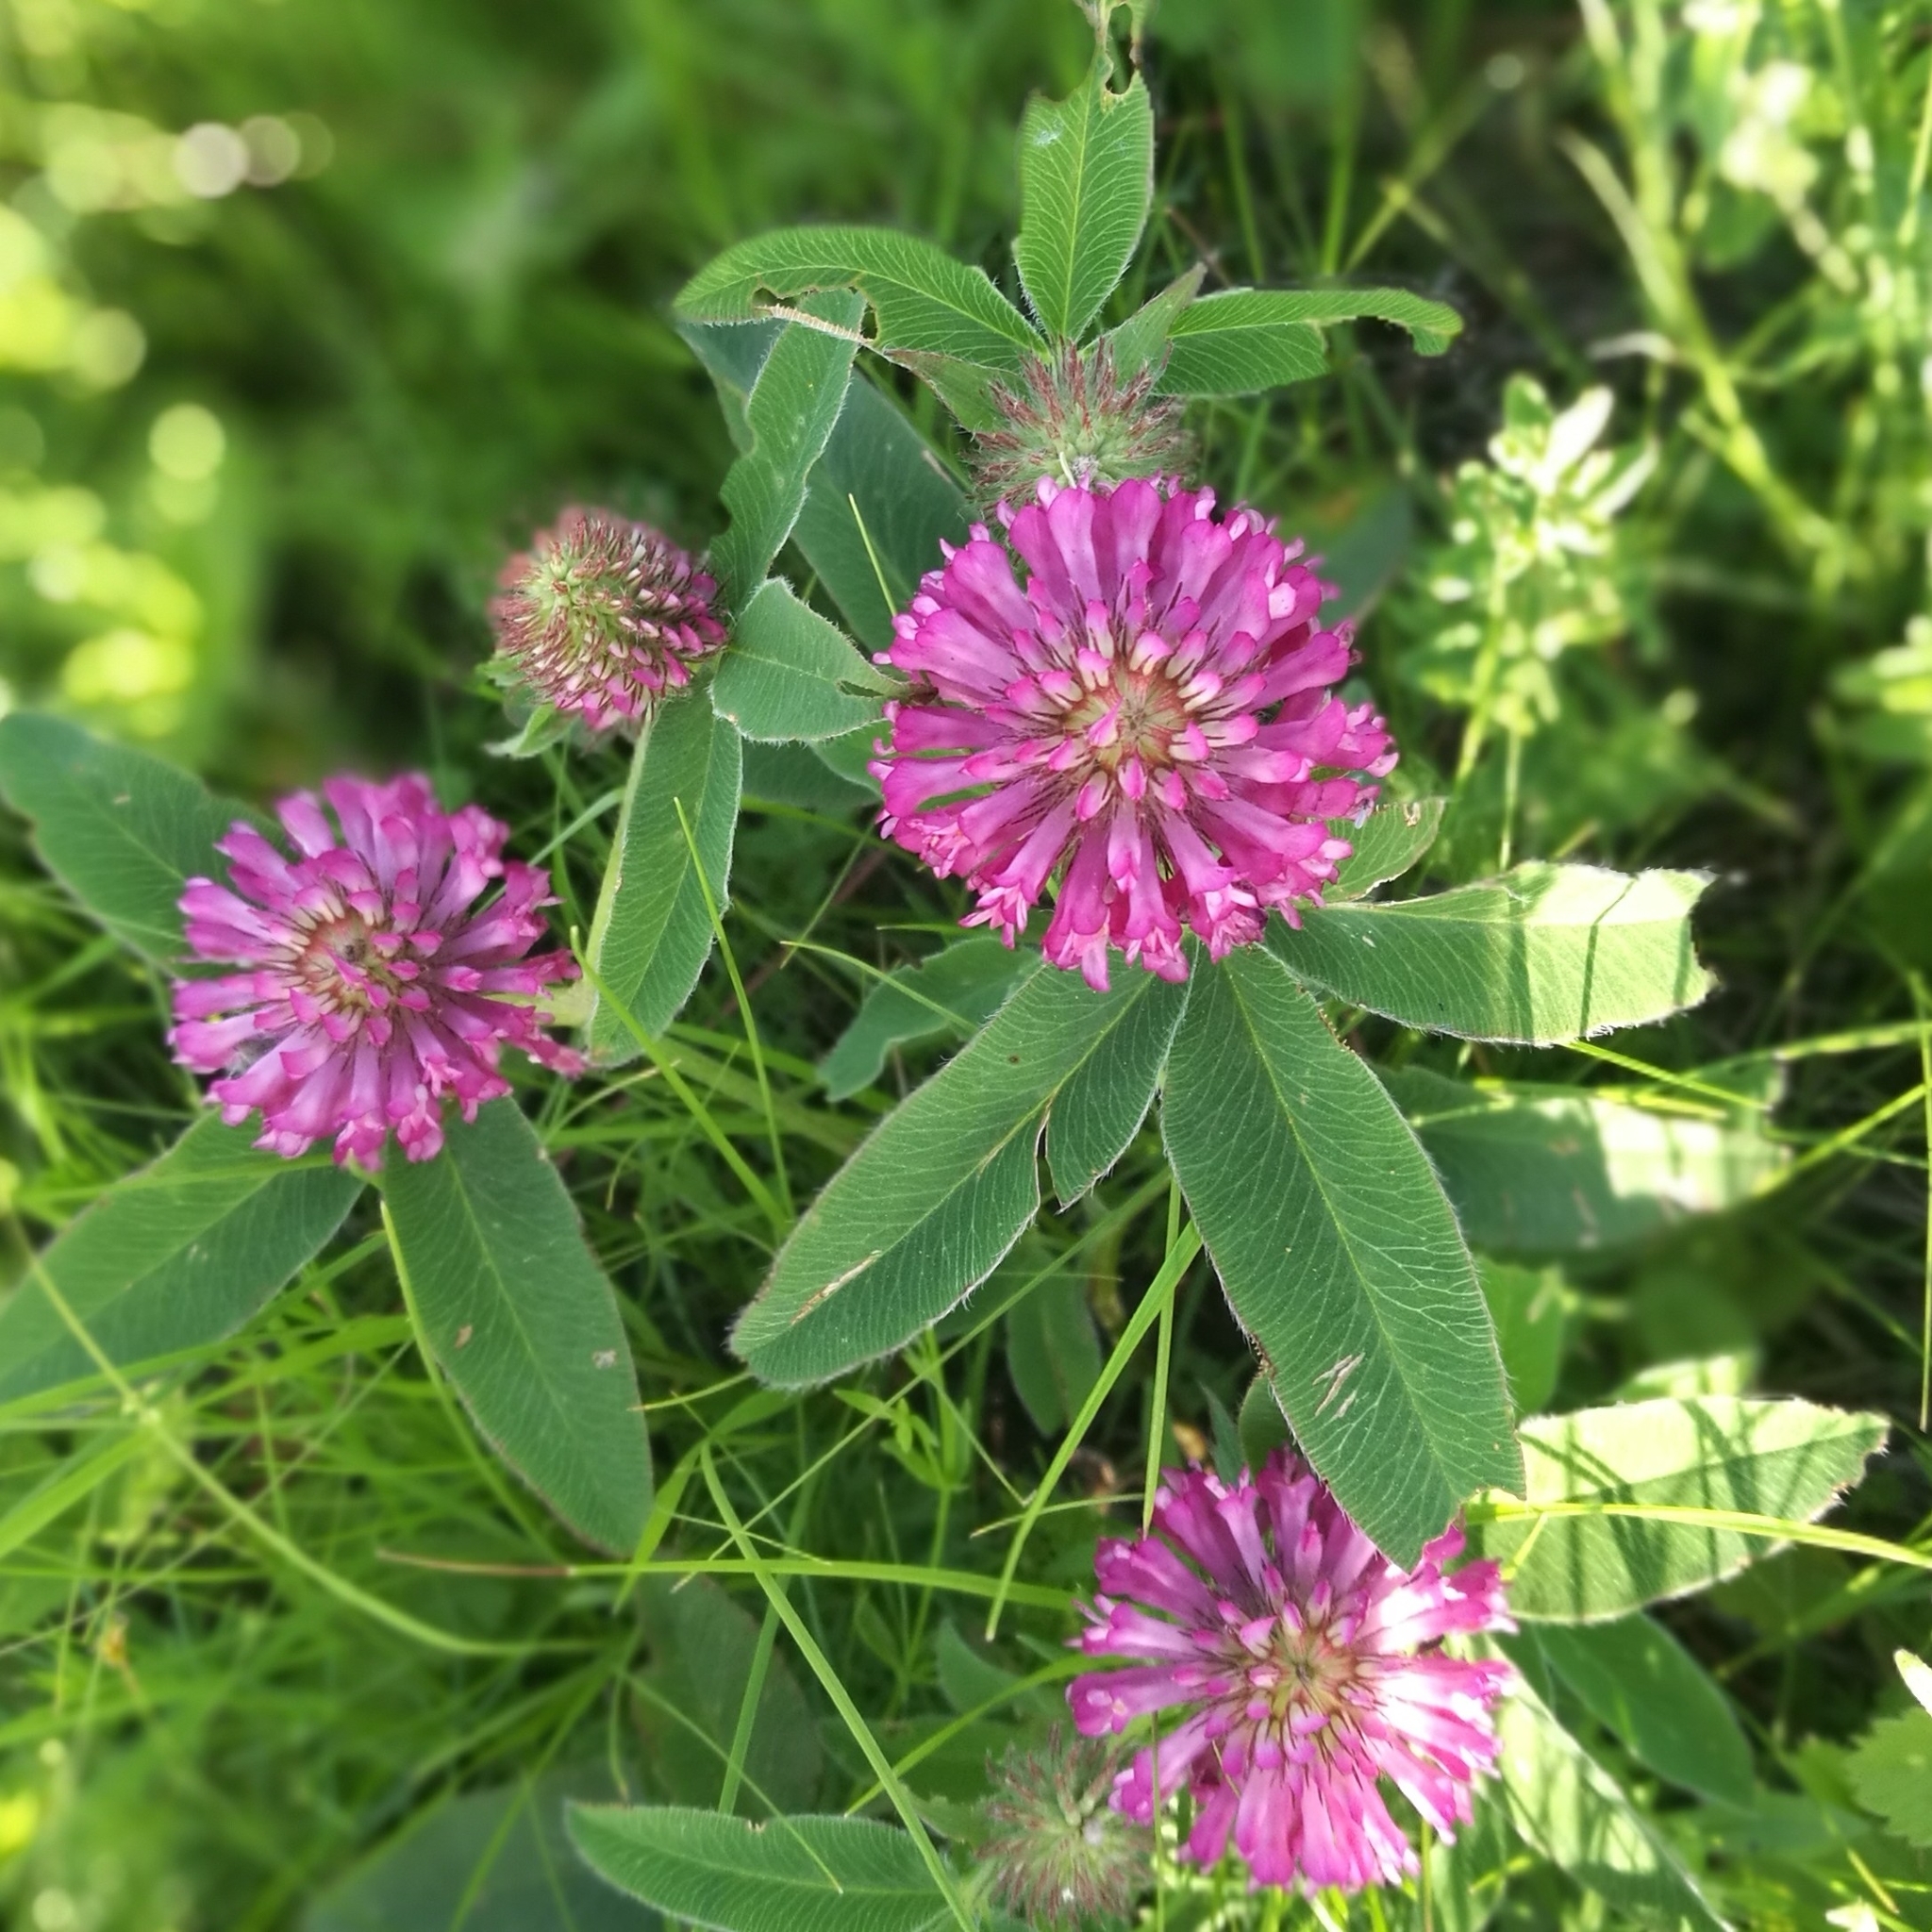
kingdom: Plantae
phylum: Tracheophyta
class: Magnoliopsida
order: Fabales
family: Fabaceae
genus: Trifolium
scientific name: Trifolium medium
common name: Zigzag clover
